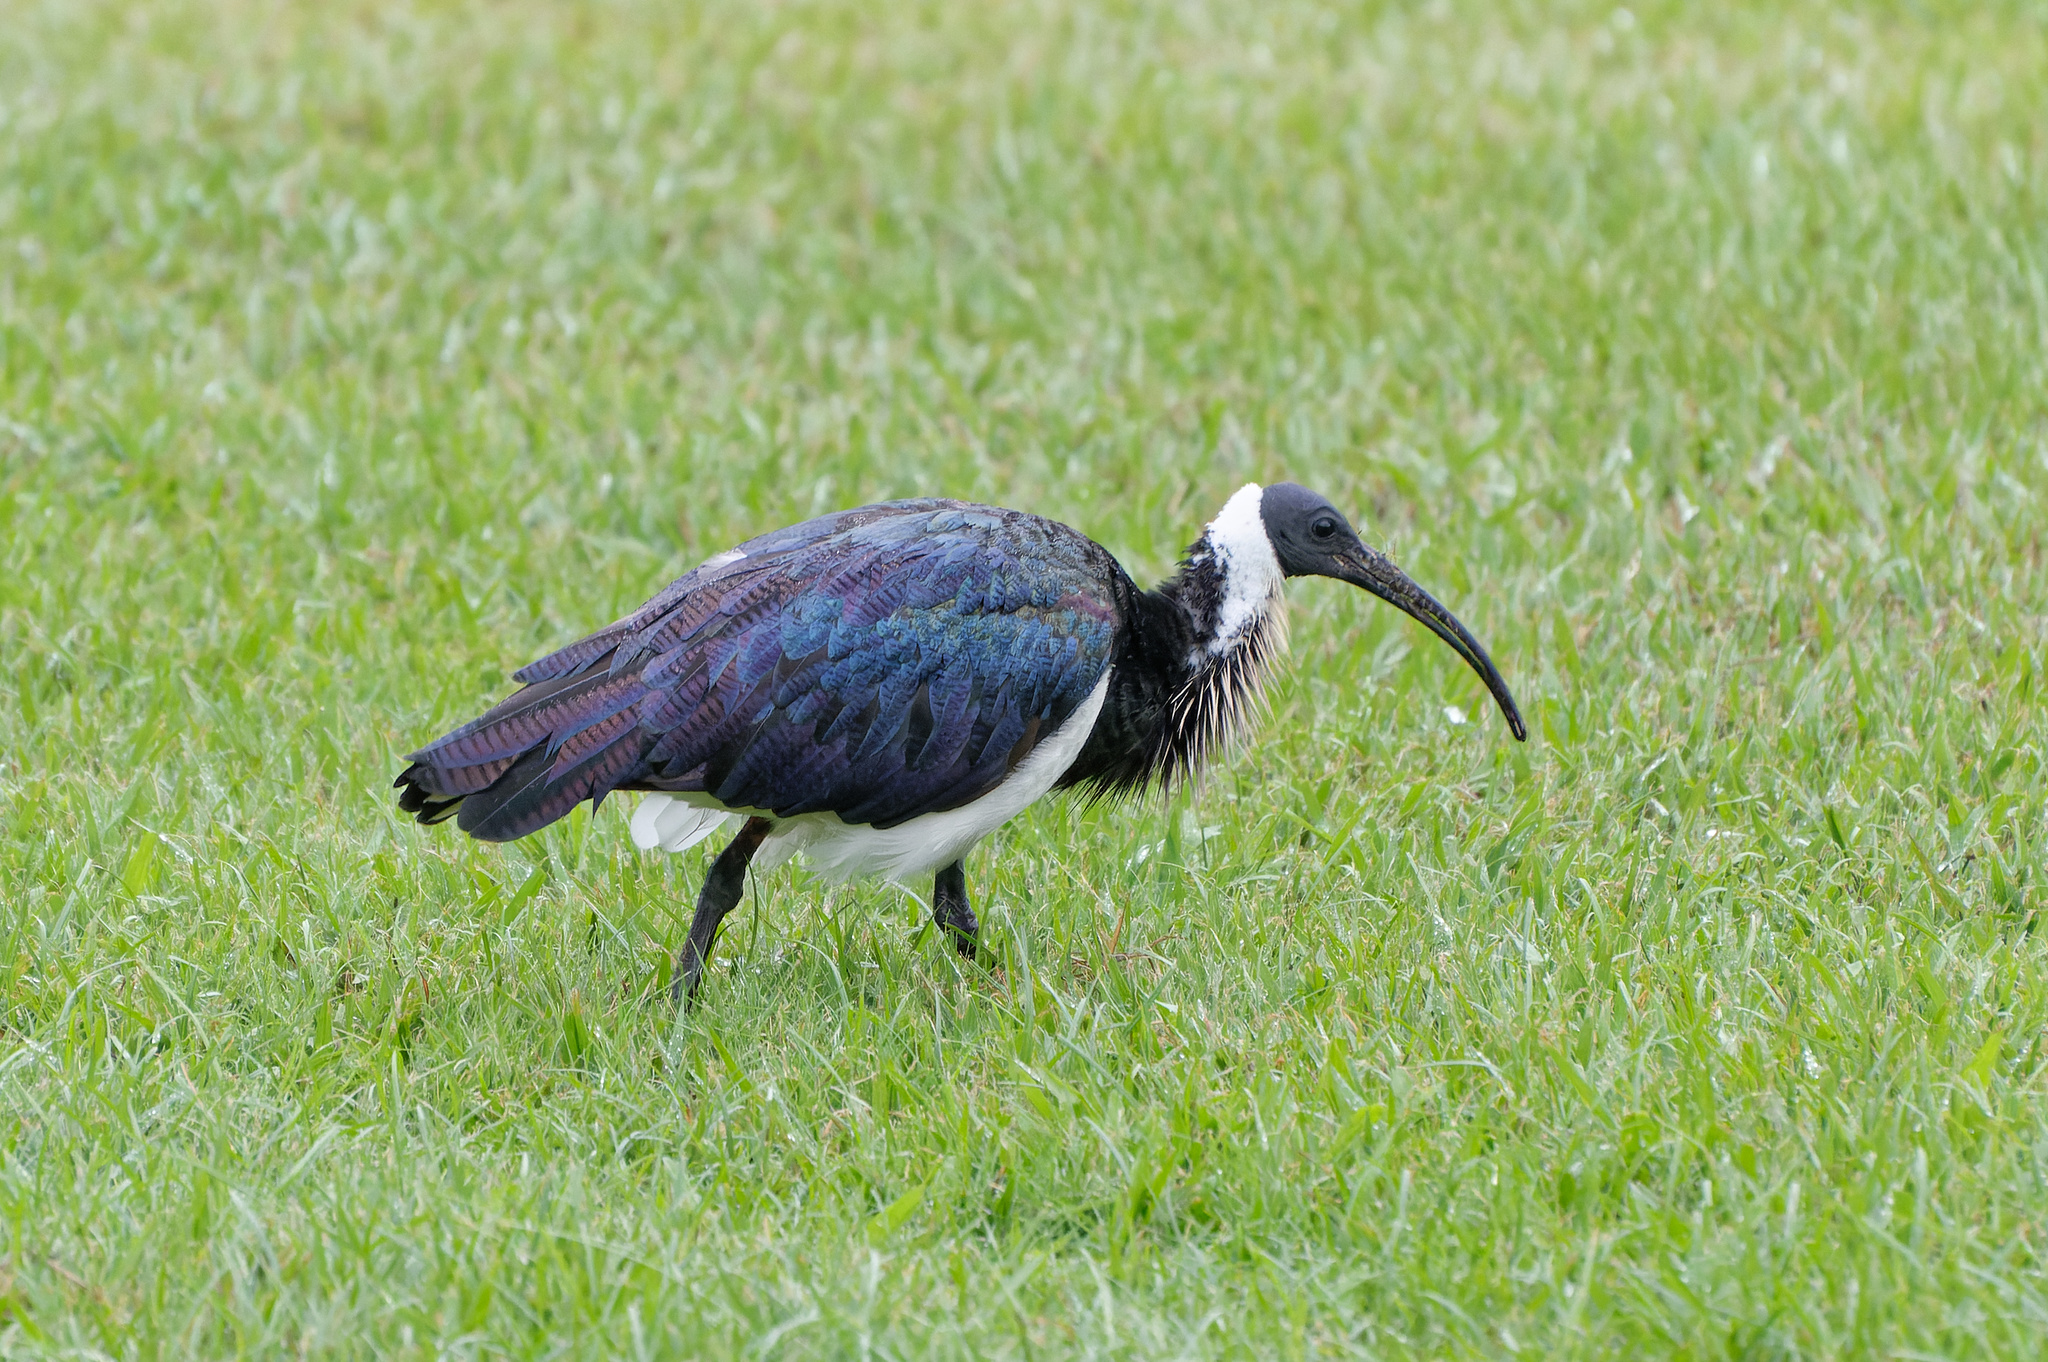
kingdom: Animalia
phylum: Chordata
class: Aves
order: Pelecaniformes
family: Threskiornithidae
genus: Threskiornis
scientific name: Threskiornis spinicollis
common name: Straw-necked ibis
